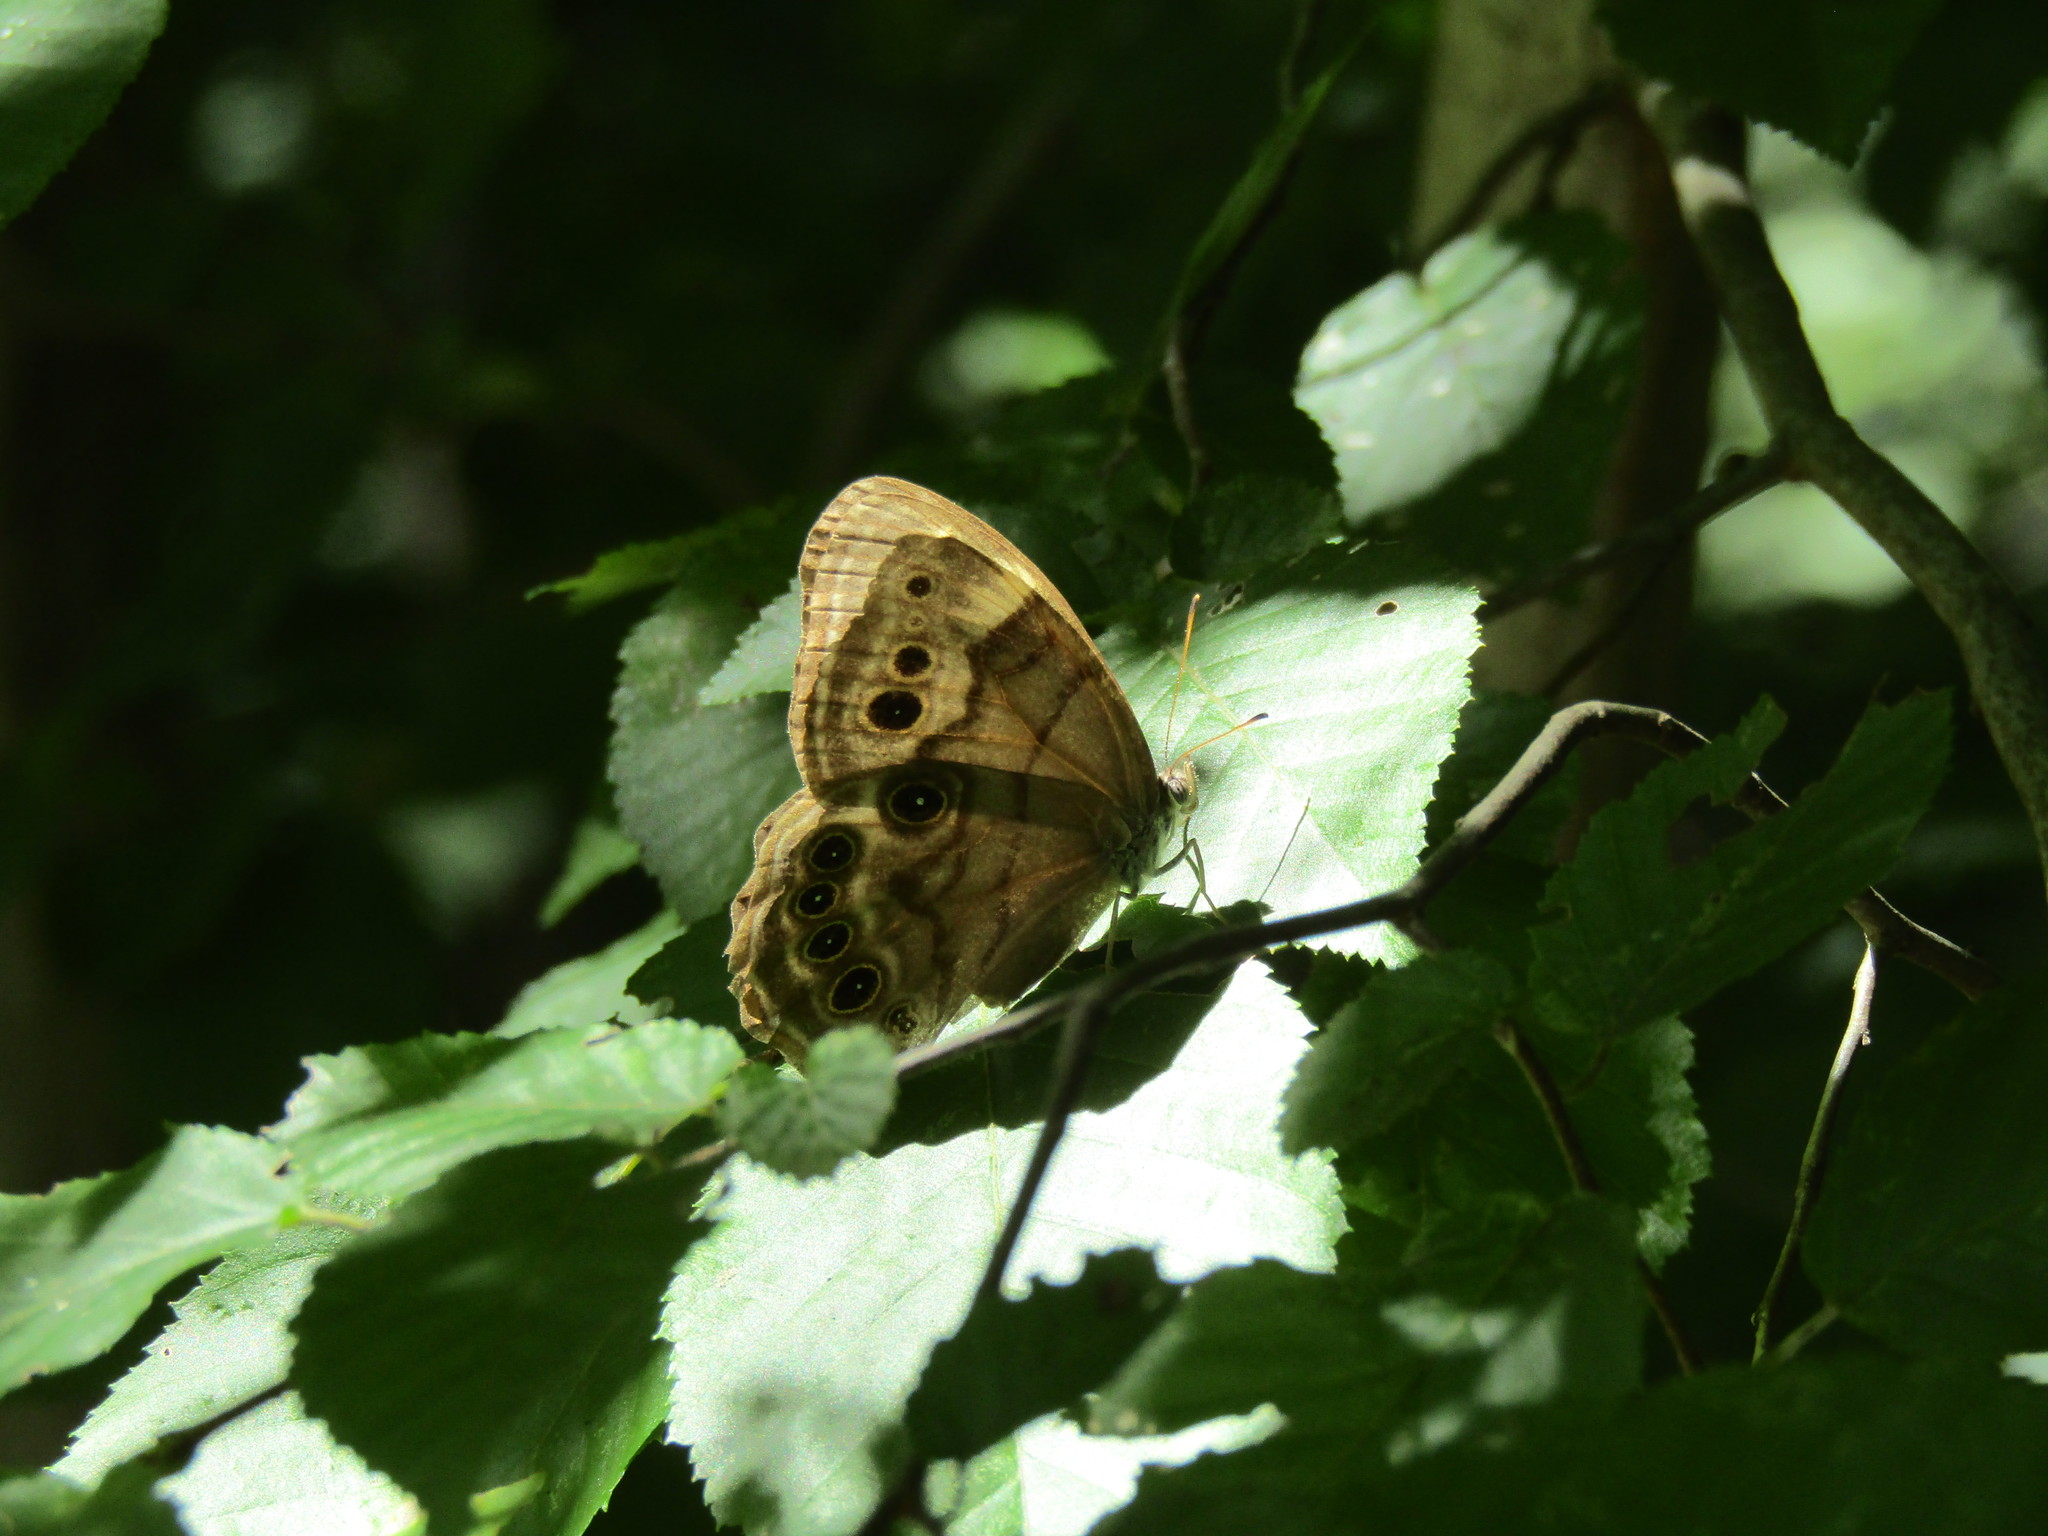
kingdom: Animalia
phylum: Arthropoda
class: Insecta
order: Lepidoptera
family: Nymphalidae
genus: Enodia
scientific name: Enodia portlandia
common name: Southern pearly-eye
